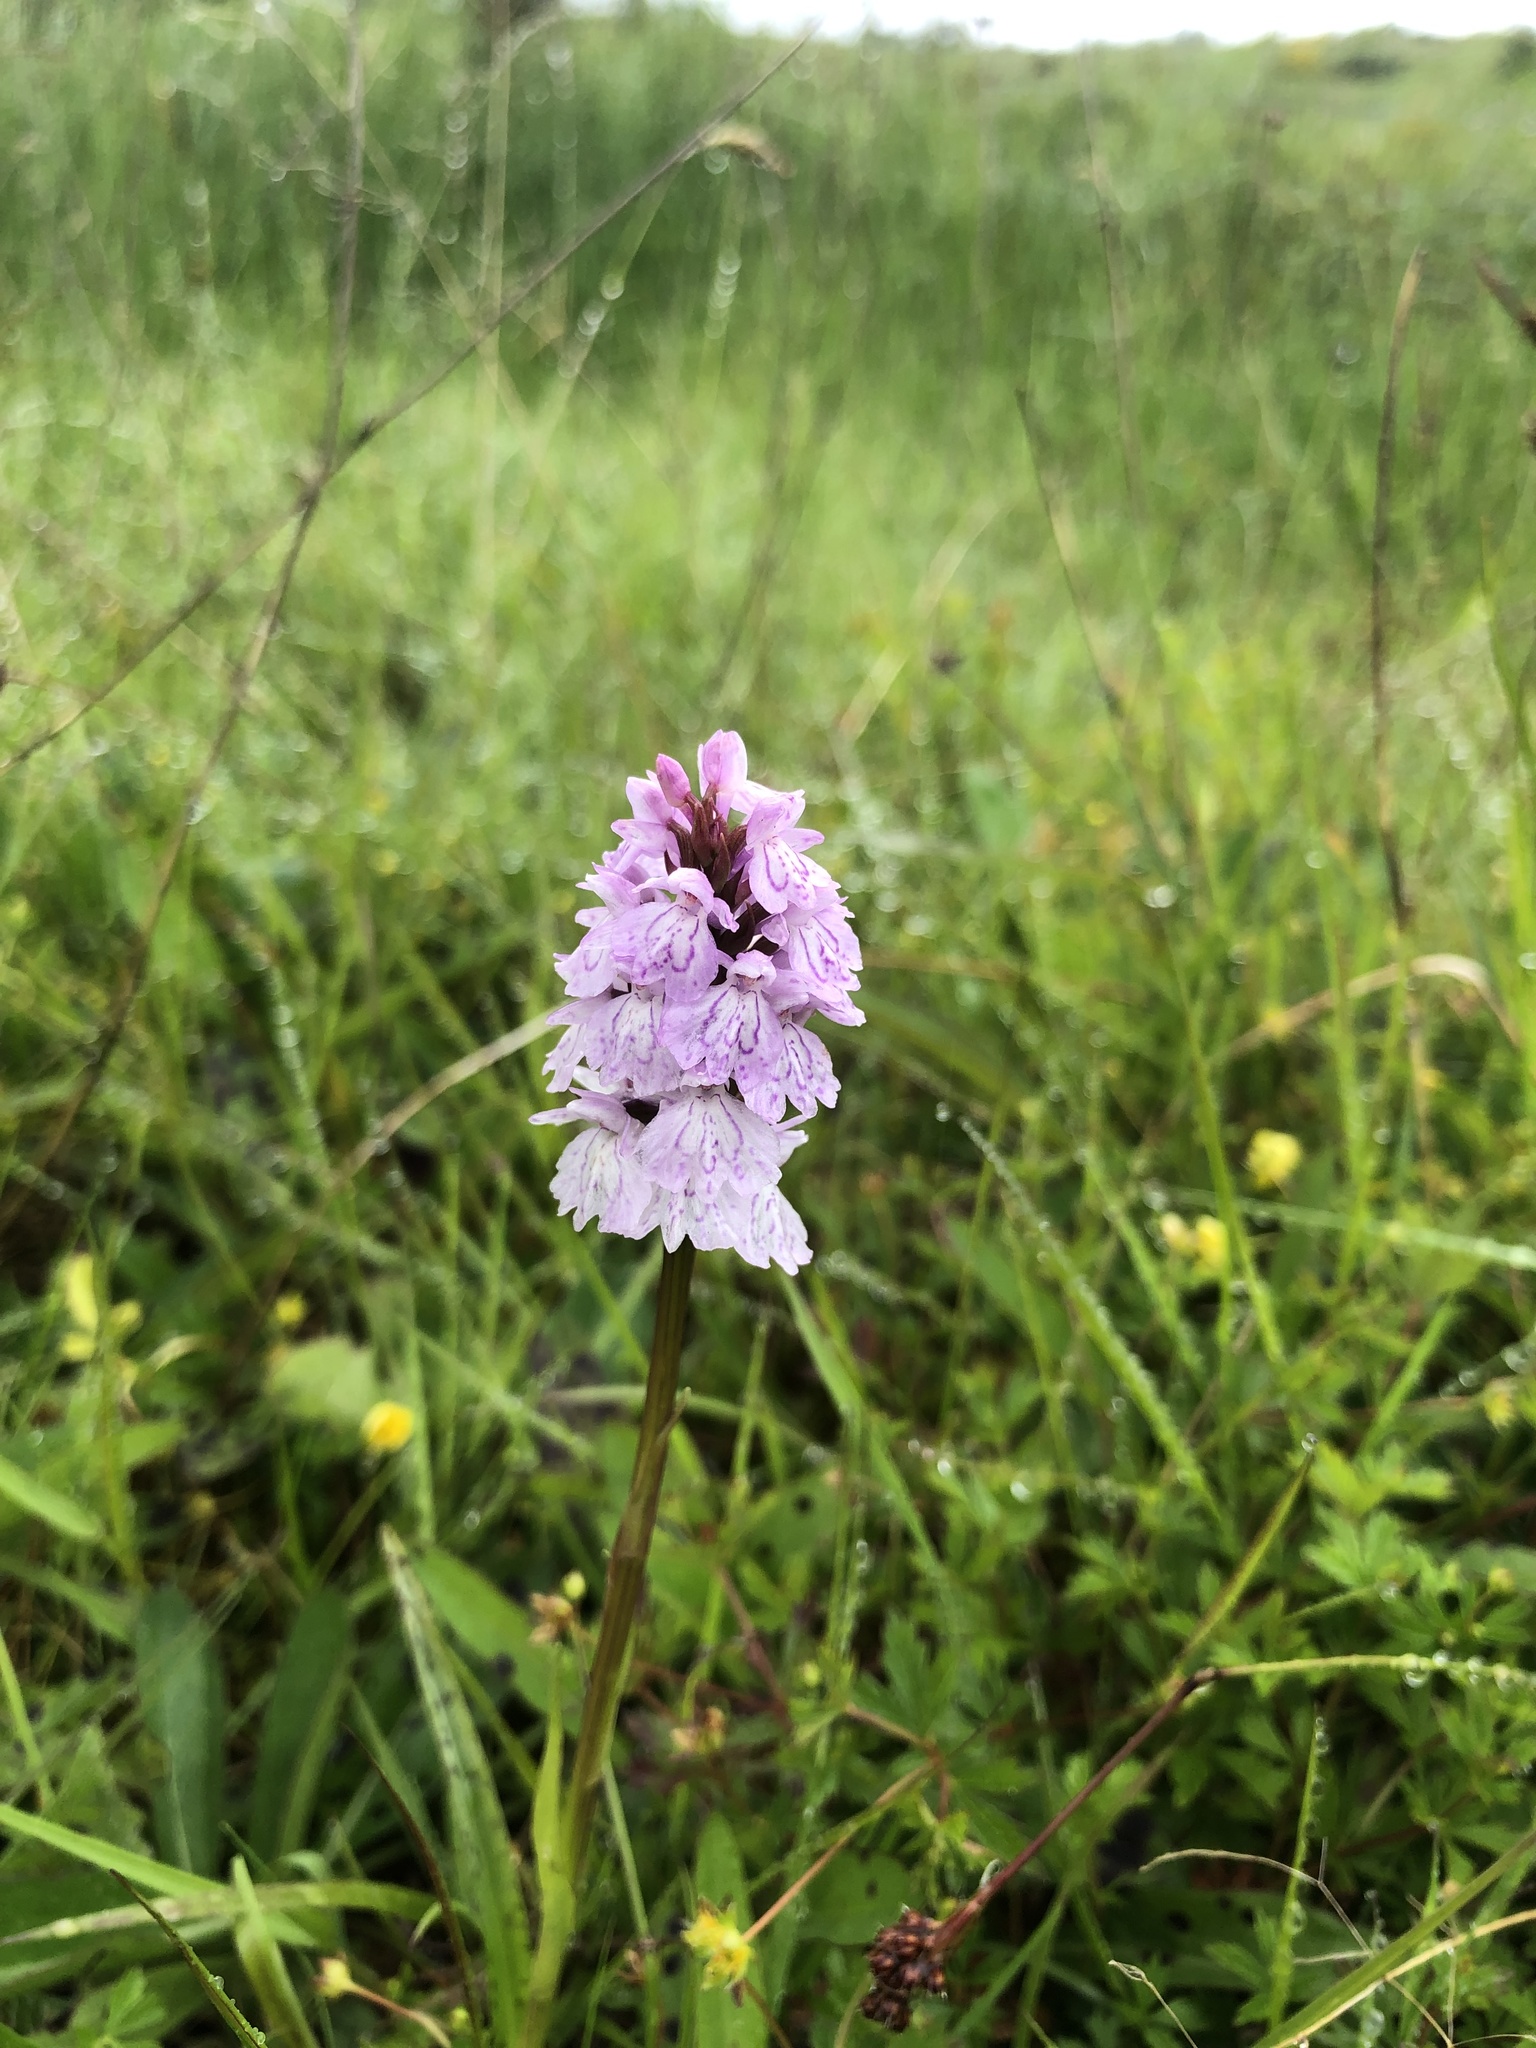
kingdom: Plantae
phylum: Tracheophyta
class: Liliopsida
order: Asparagales
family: Orchidaceae
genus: Dactylorhiza
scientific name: Dactylorhiza maculata
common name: Heath spotted-orchid
